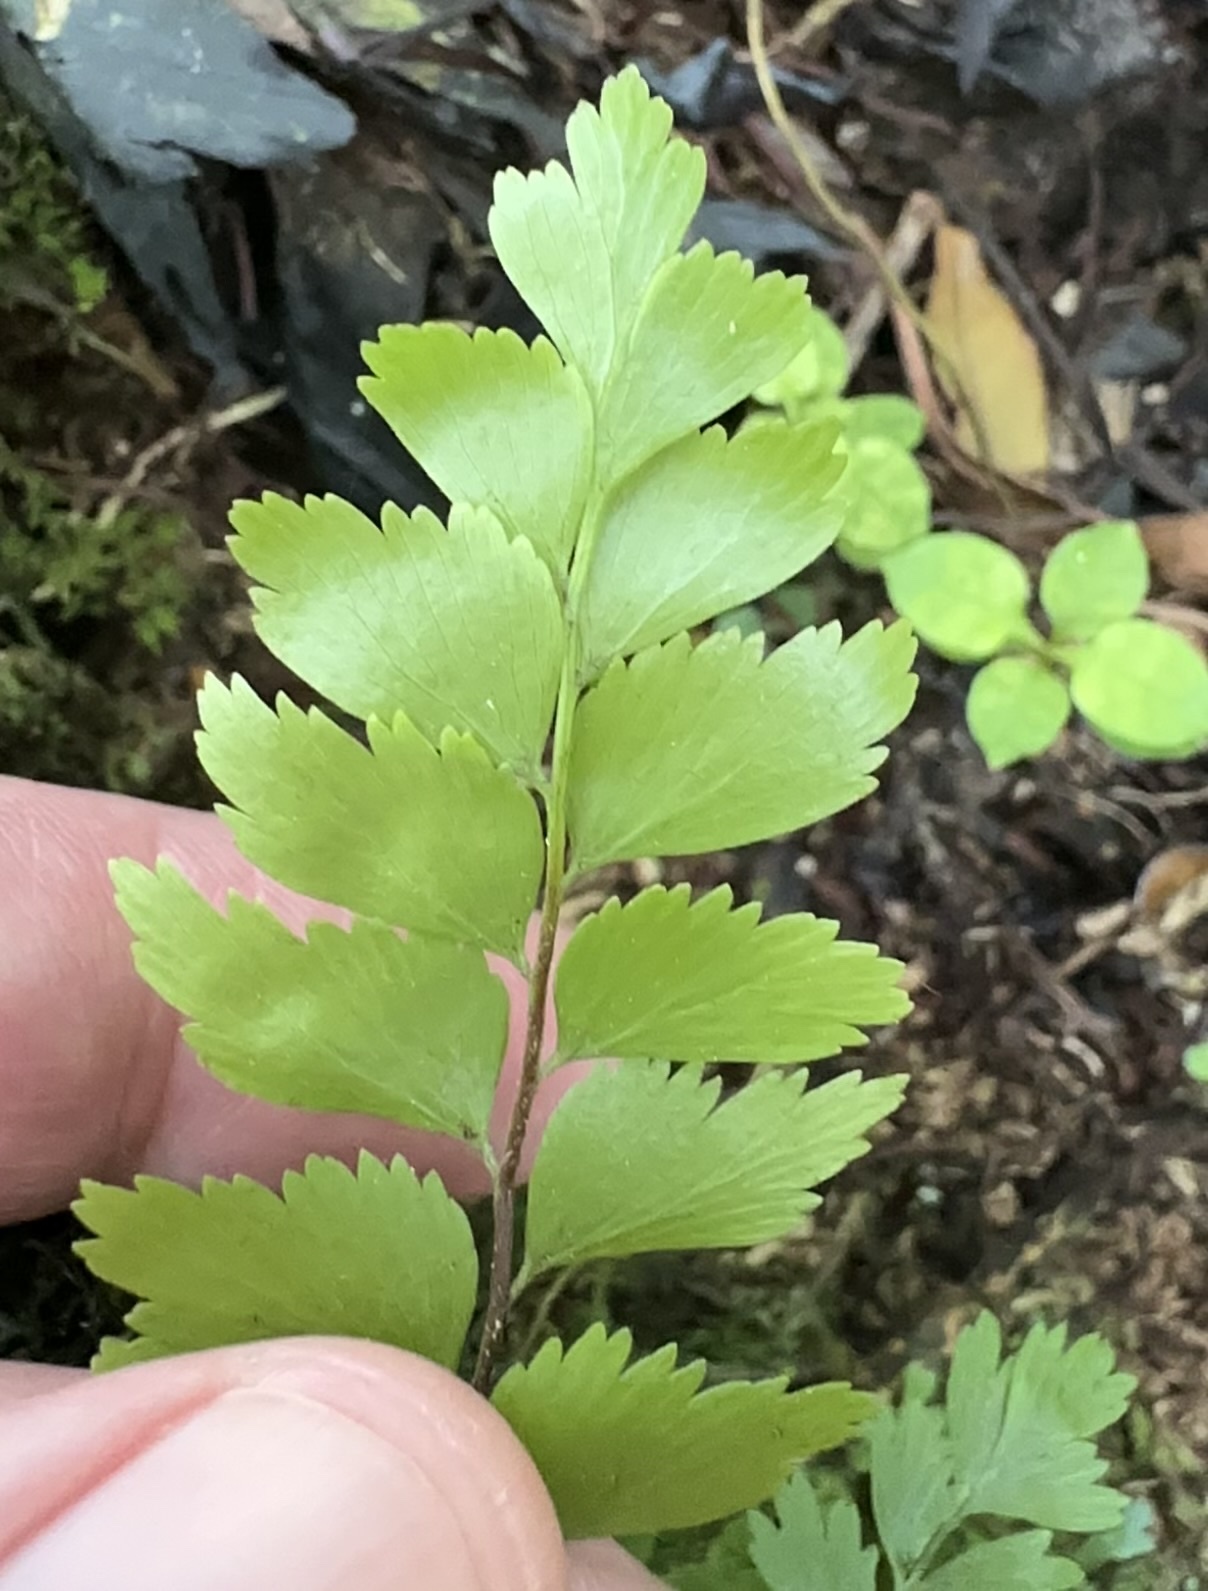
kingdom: Plantae
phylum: Tracheophyta
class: Polypodiopsida
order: Polypodiales
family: Aspleniaceae
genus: Asplenium
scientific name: Asplenium polyodon
